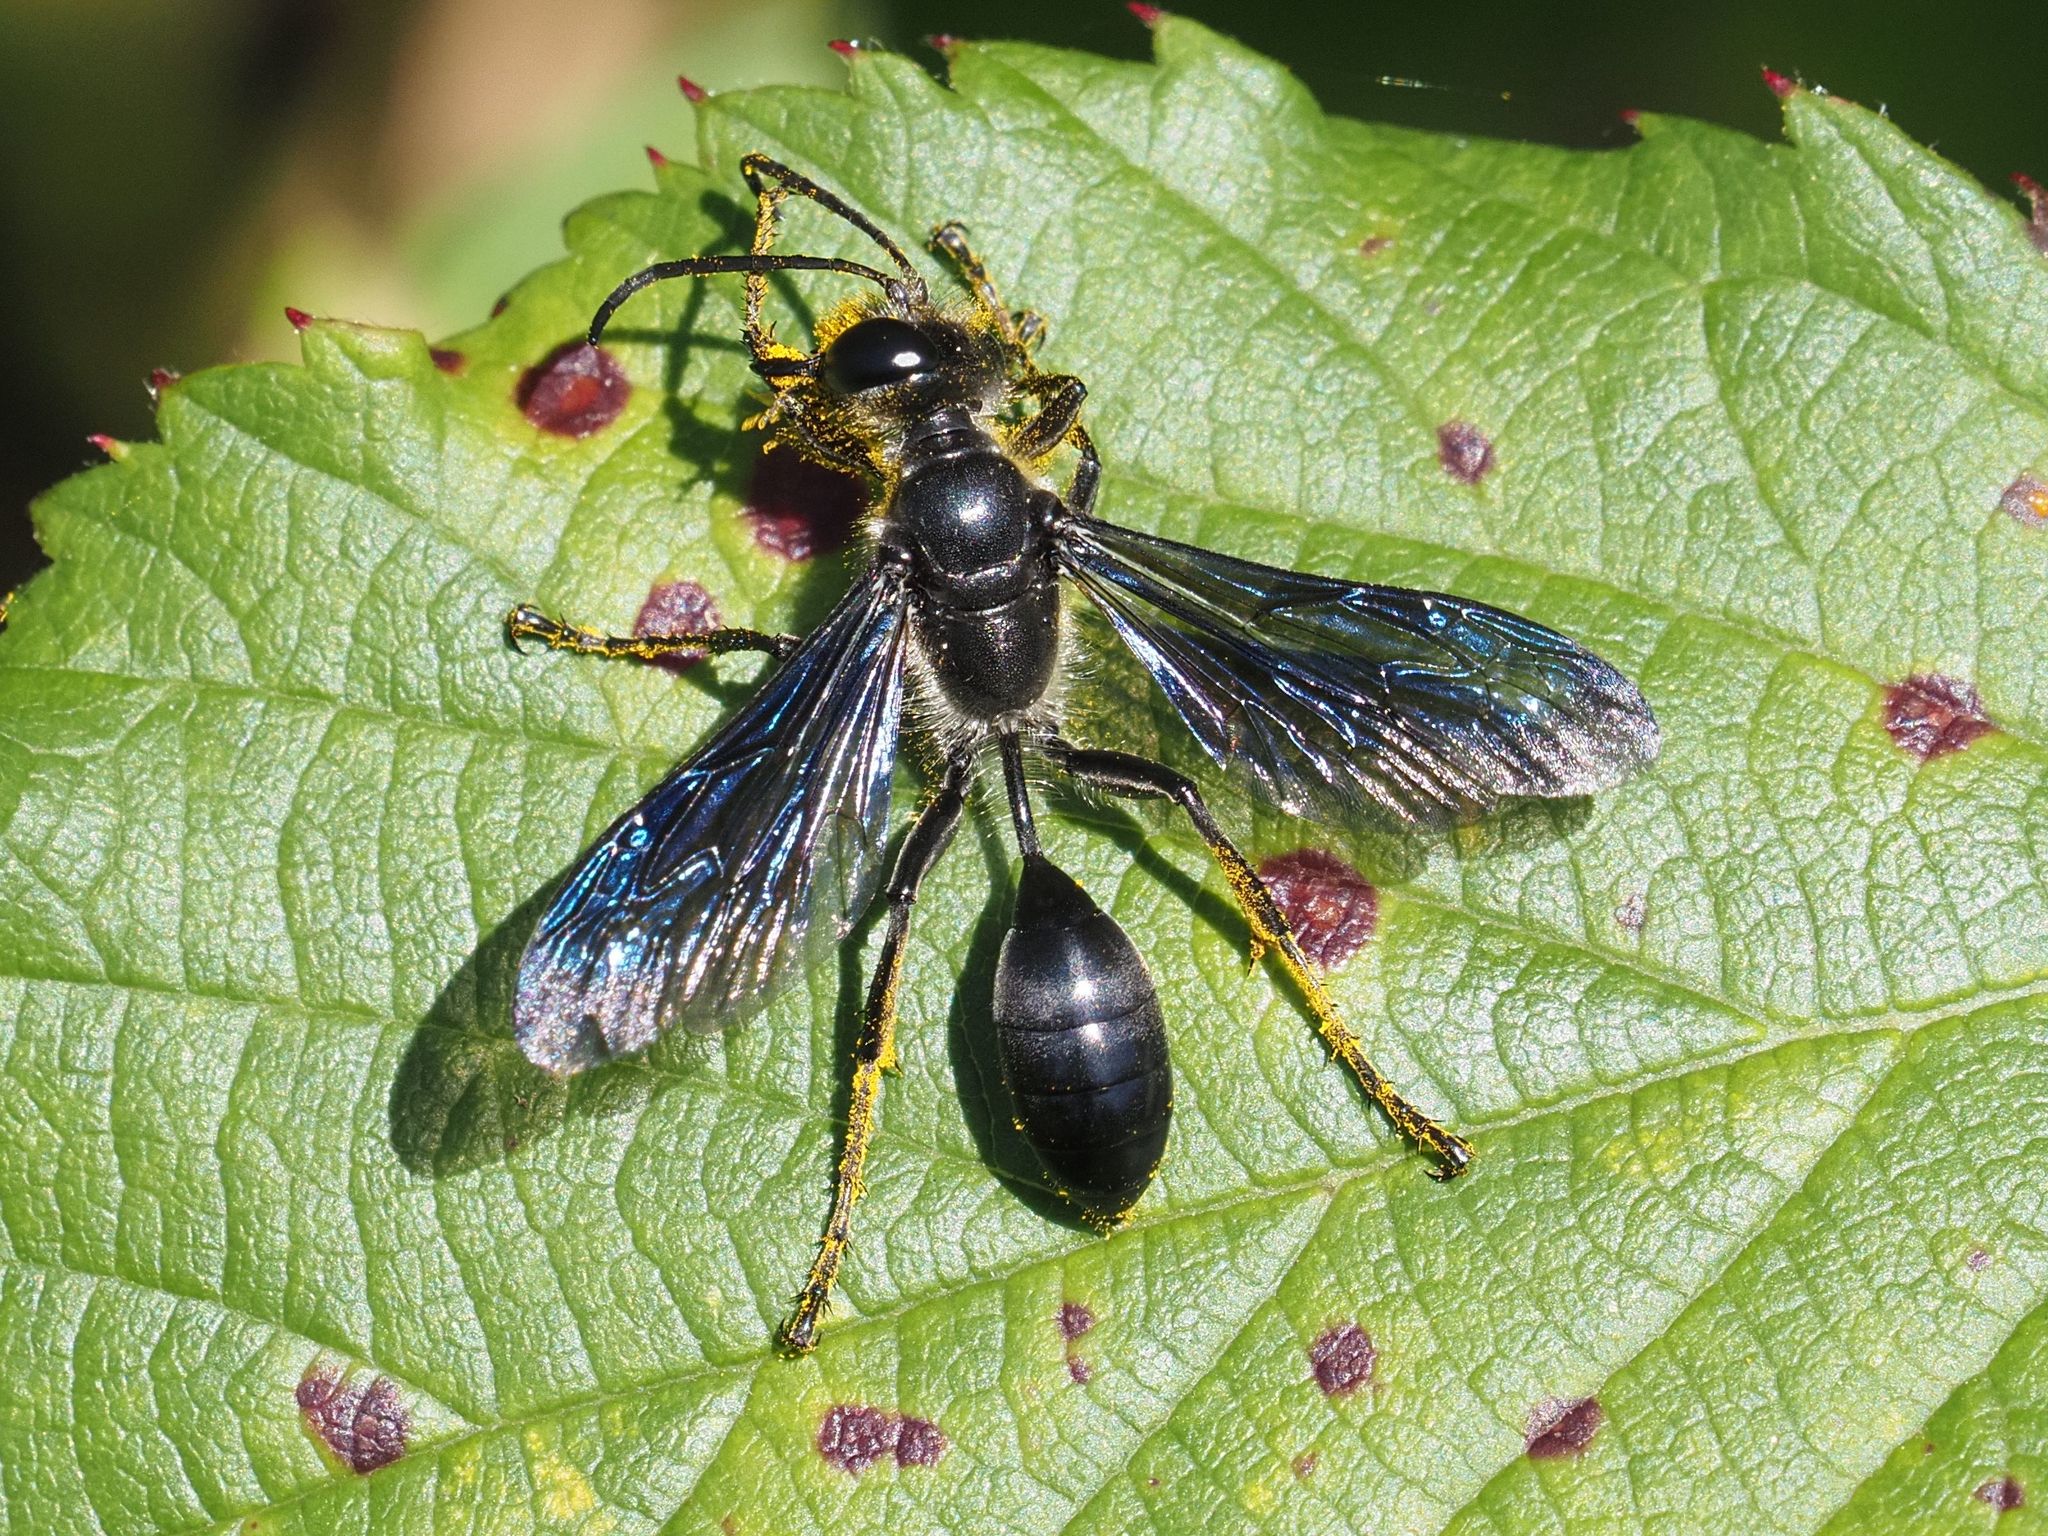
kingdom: Animalia
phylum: Arthropoda
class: Insecta
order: Hymenoptera
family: Sphecidae
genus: Isodontia
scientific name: Isodontia mexicana
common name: Mud dauber
